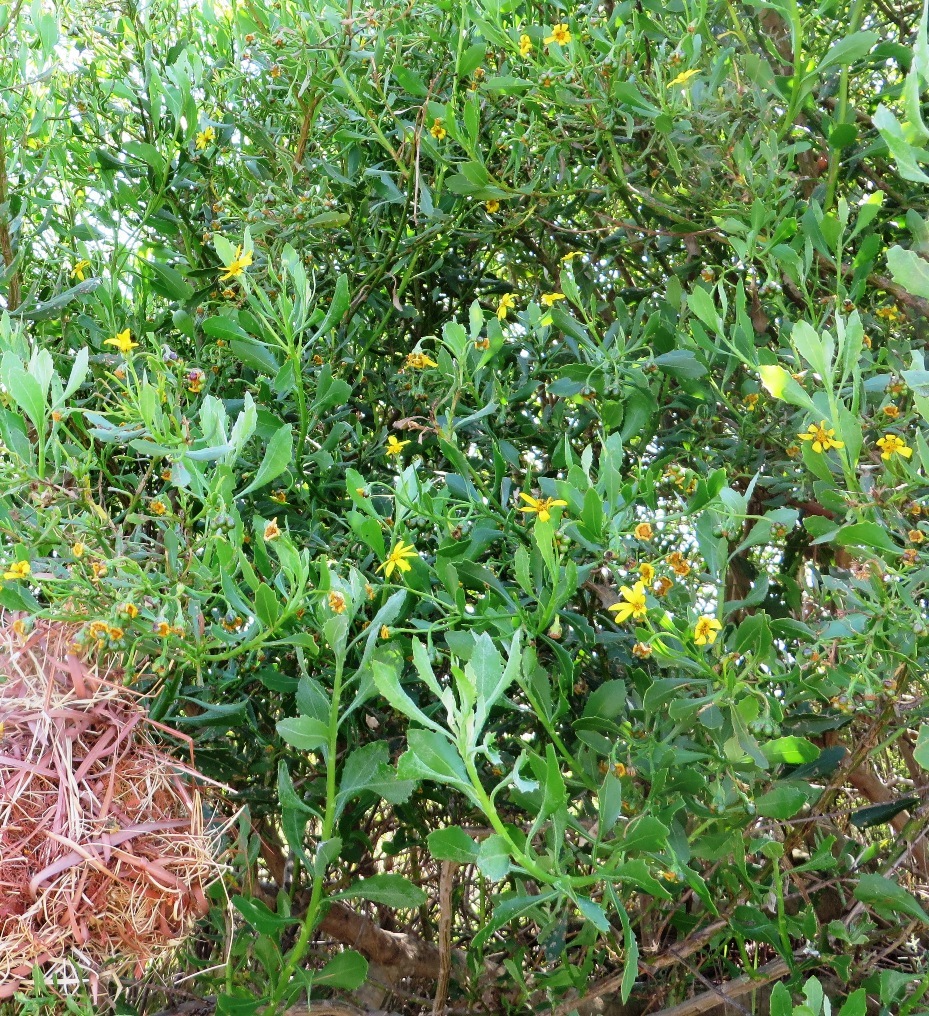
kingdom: Plantae
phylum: Tracheophyta
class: Magnoliopsida
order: Asterales
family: Asteraceae
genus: Osteospermum
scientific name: Osteospermum moniliferum
